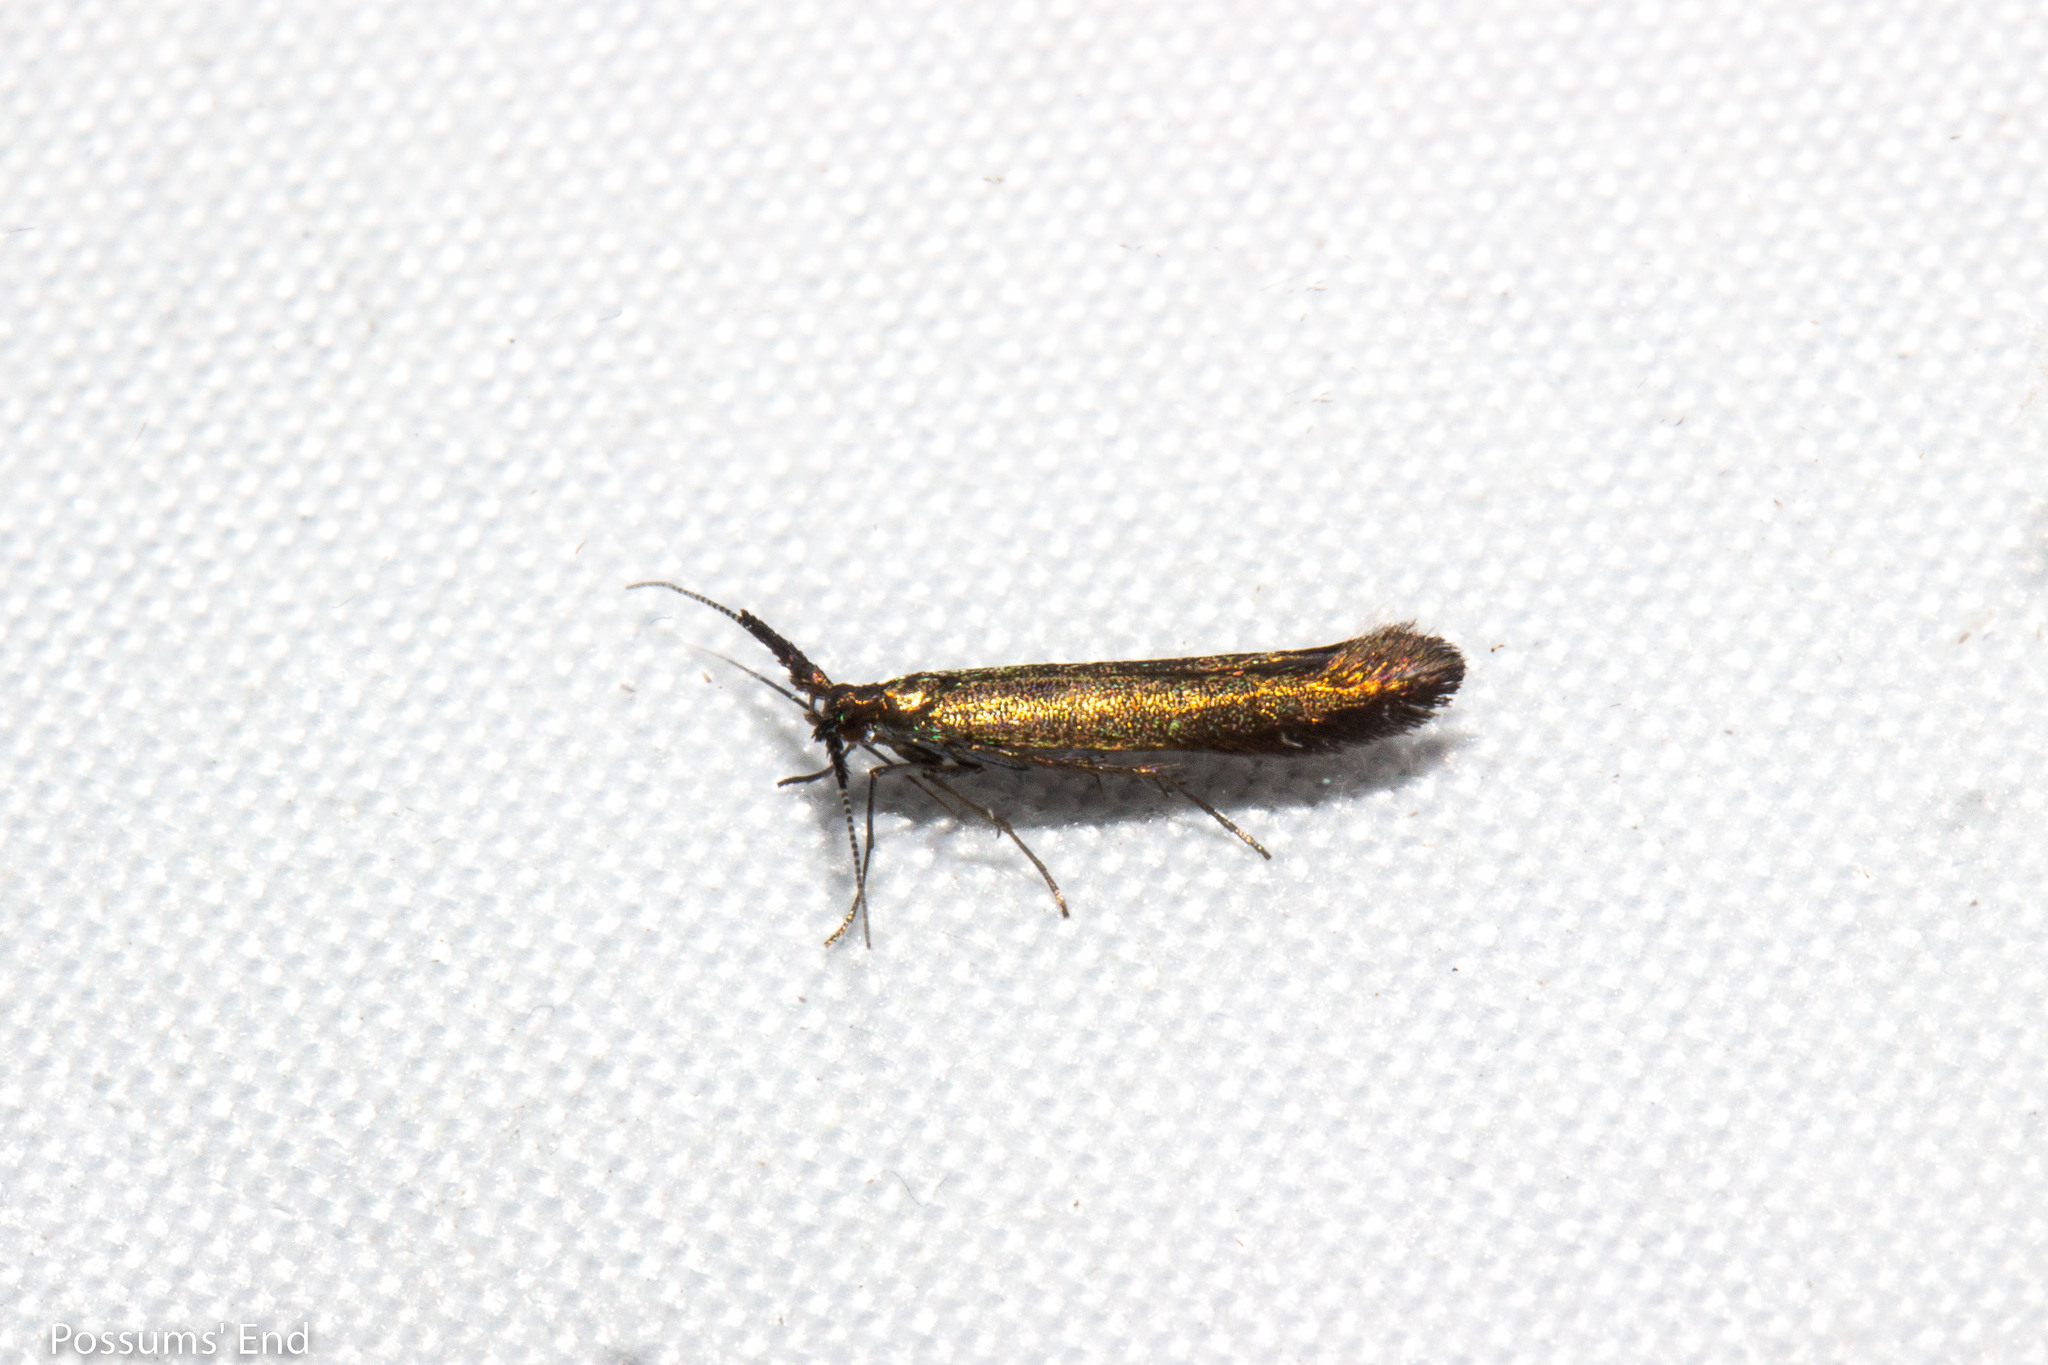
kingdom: Animalia
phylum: Arthropoda
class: Insecta
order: Lepidoptera
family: Coleophoridae
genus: Coleophora
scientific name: Coleophora mayrella
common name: Meadow case-bearer
